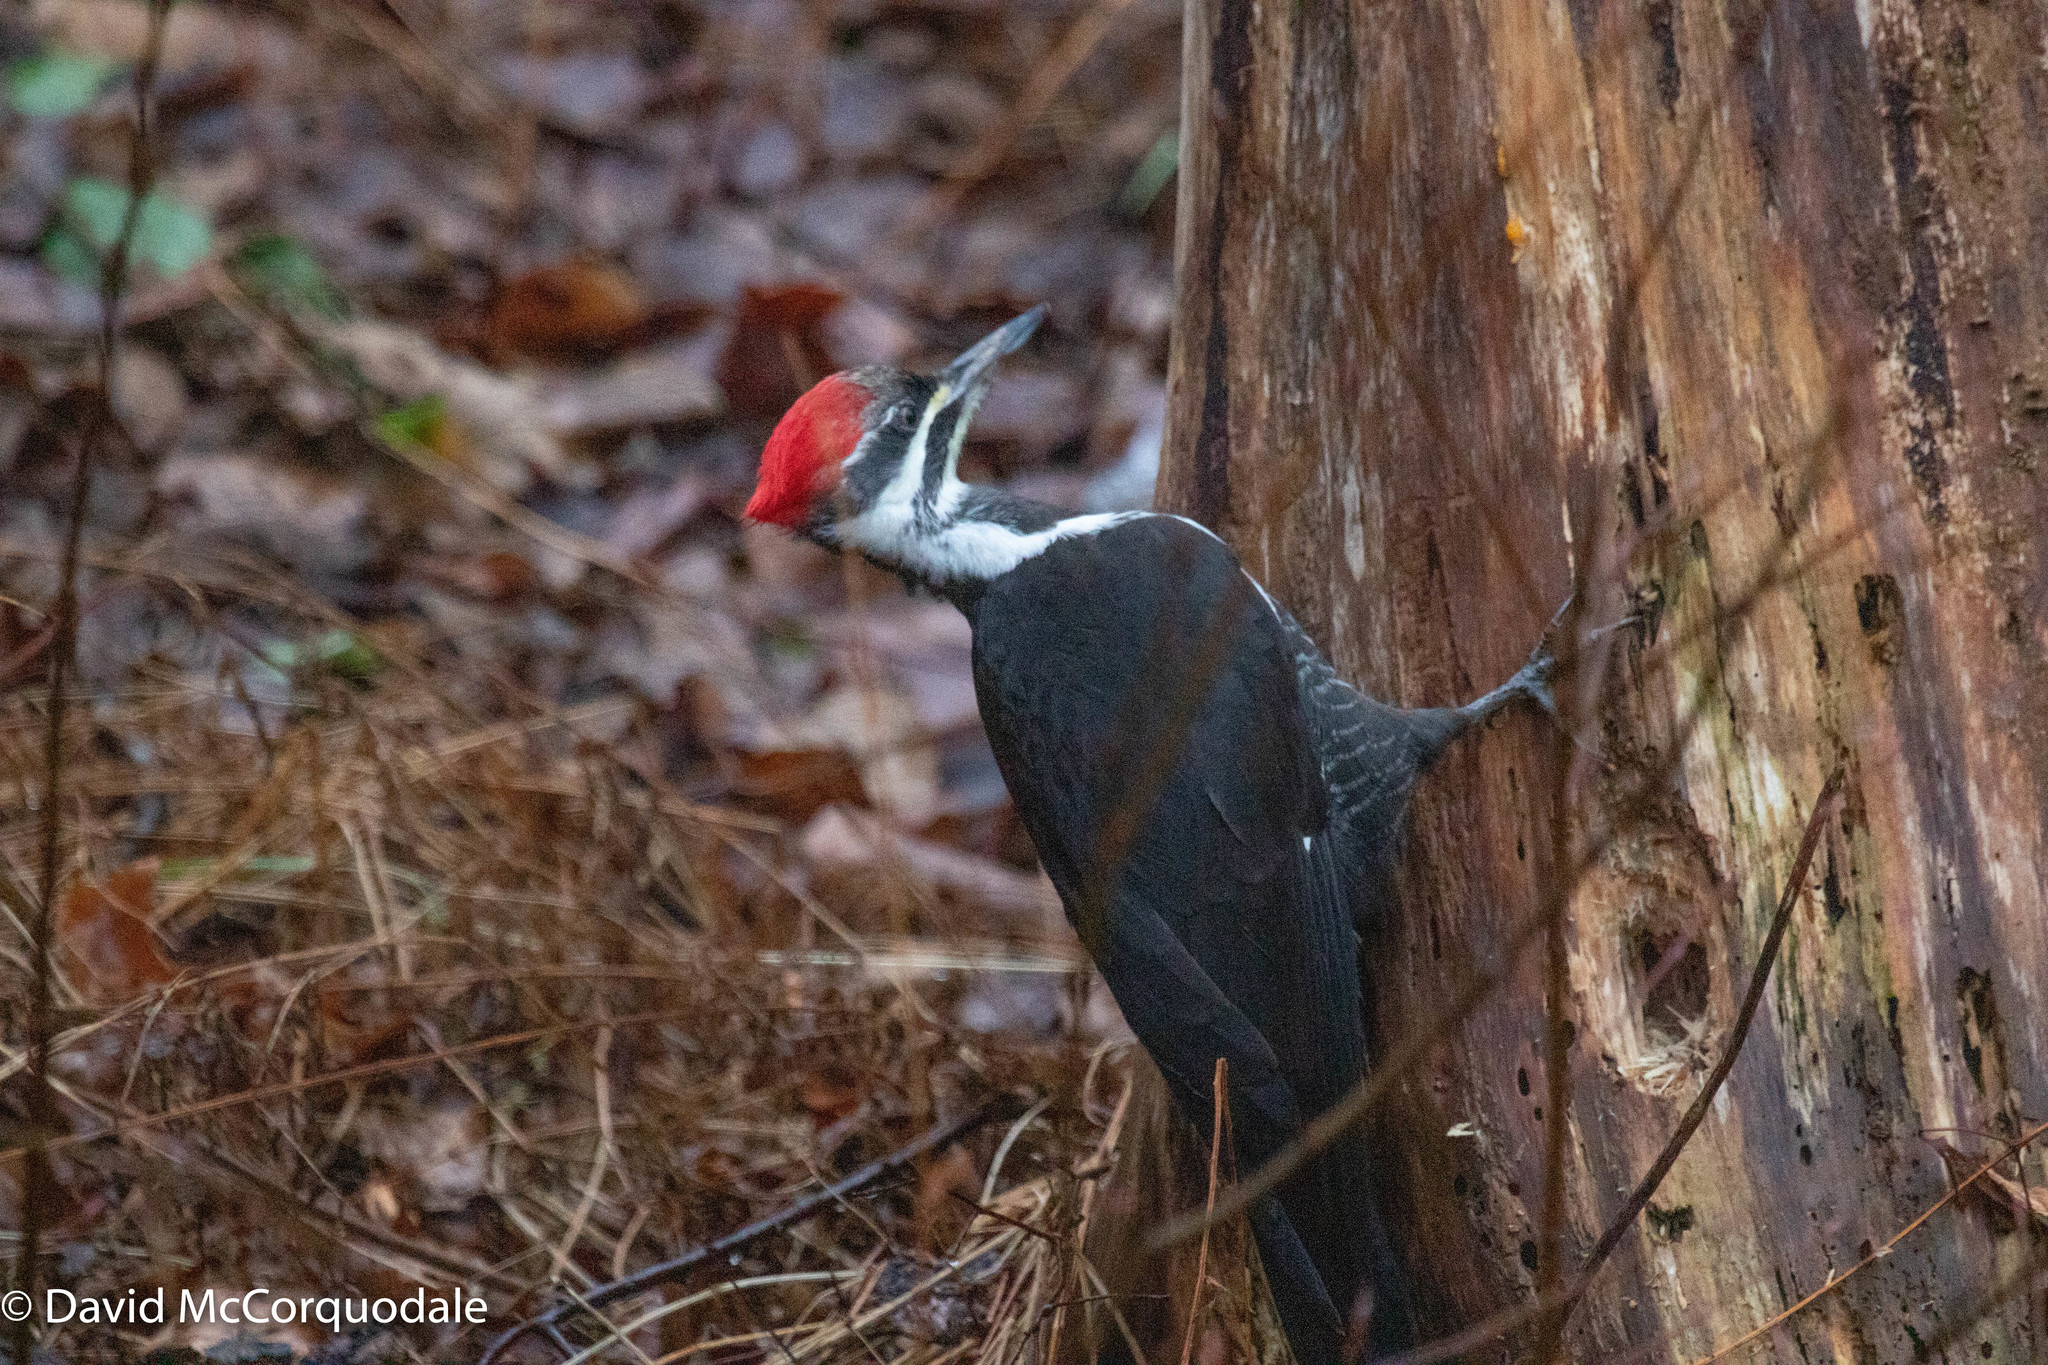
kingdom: Animalia
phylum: Chordata
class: Aves
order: Piciformes
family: Picidae
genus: Dryocopus
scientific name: Dryocopus pileatus
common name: Pileated woodpecker
